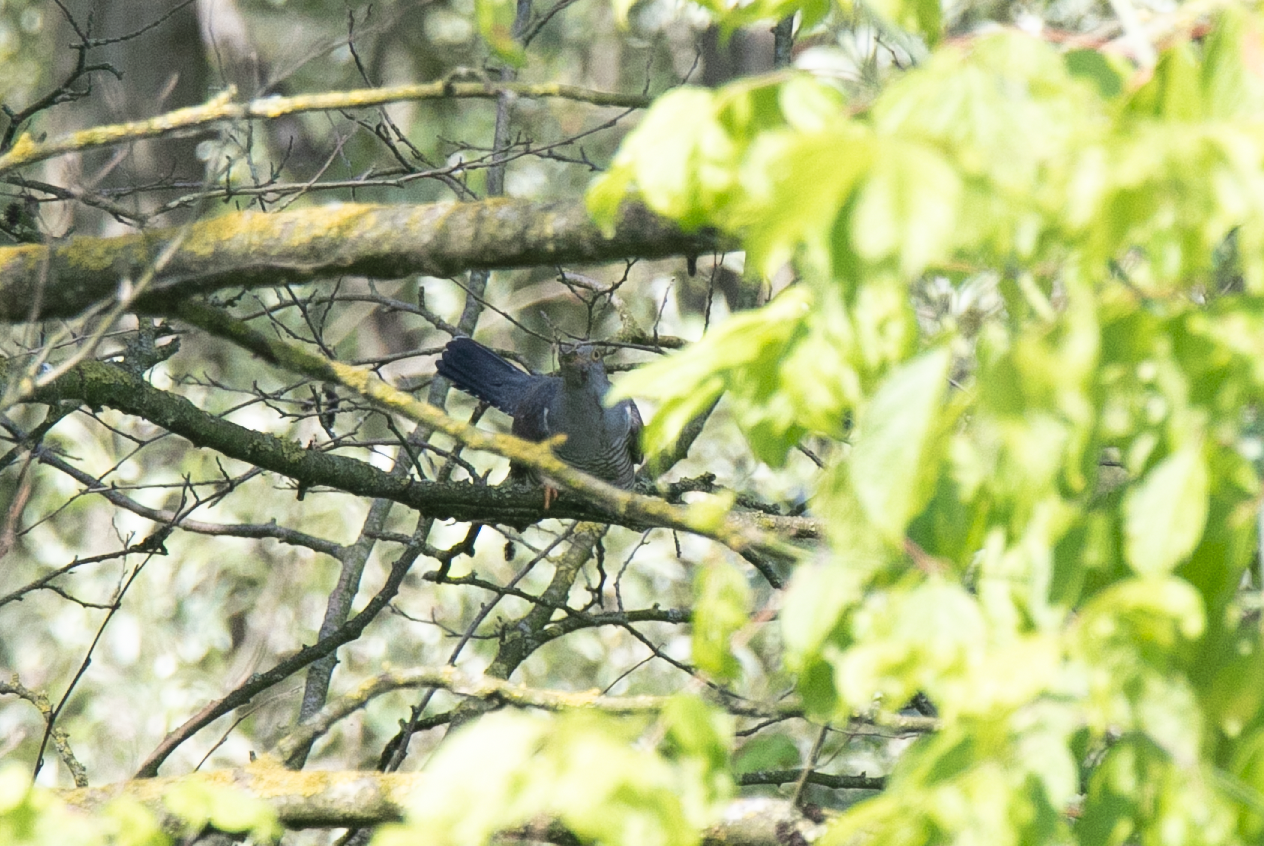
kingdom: Animalia
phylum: Chordata
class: Aves
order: Cuculiformes
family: Cuculidae
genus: Cuculus
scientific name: Cuculus canorus
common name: Common cuckoo
